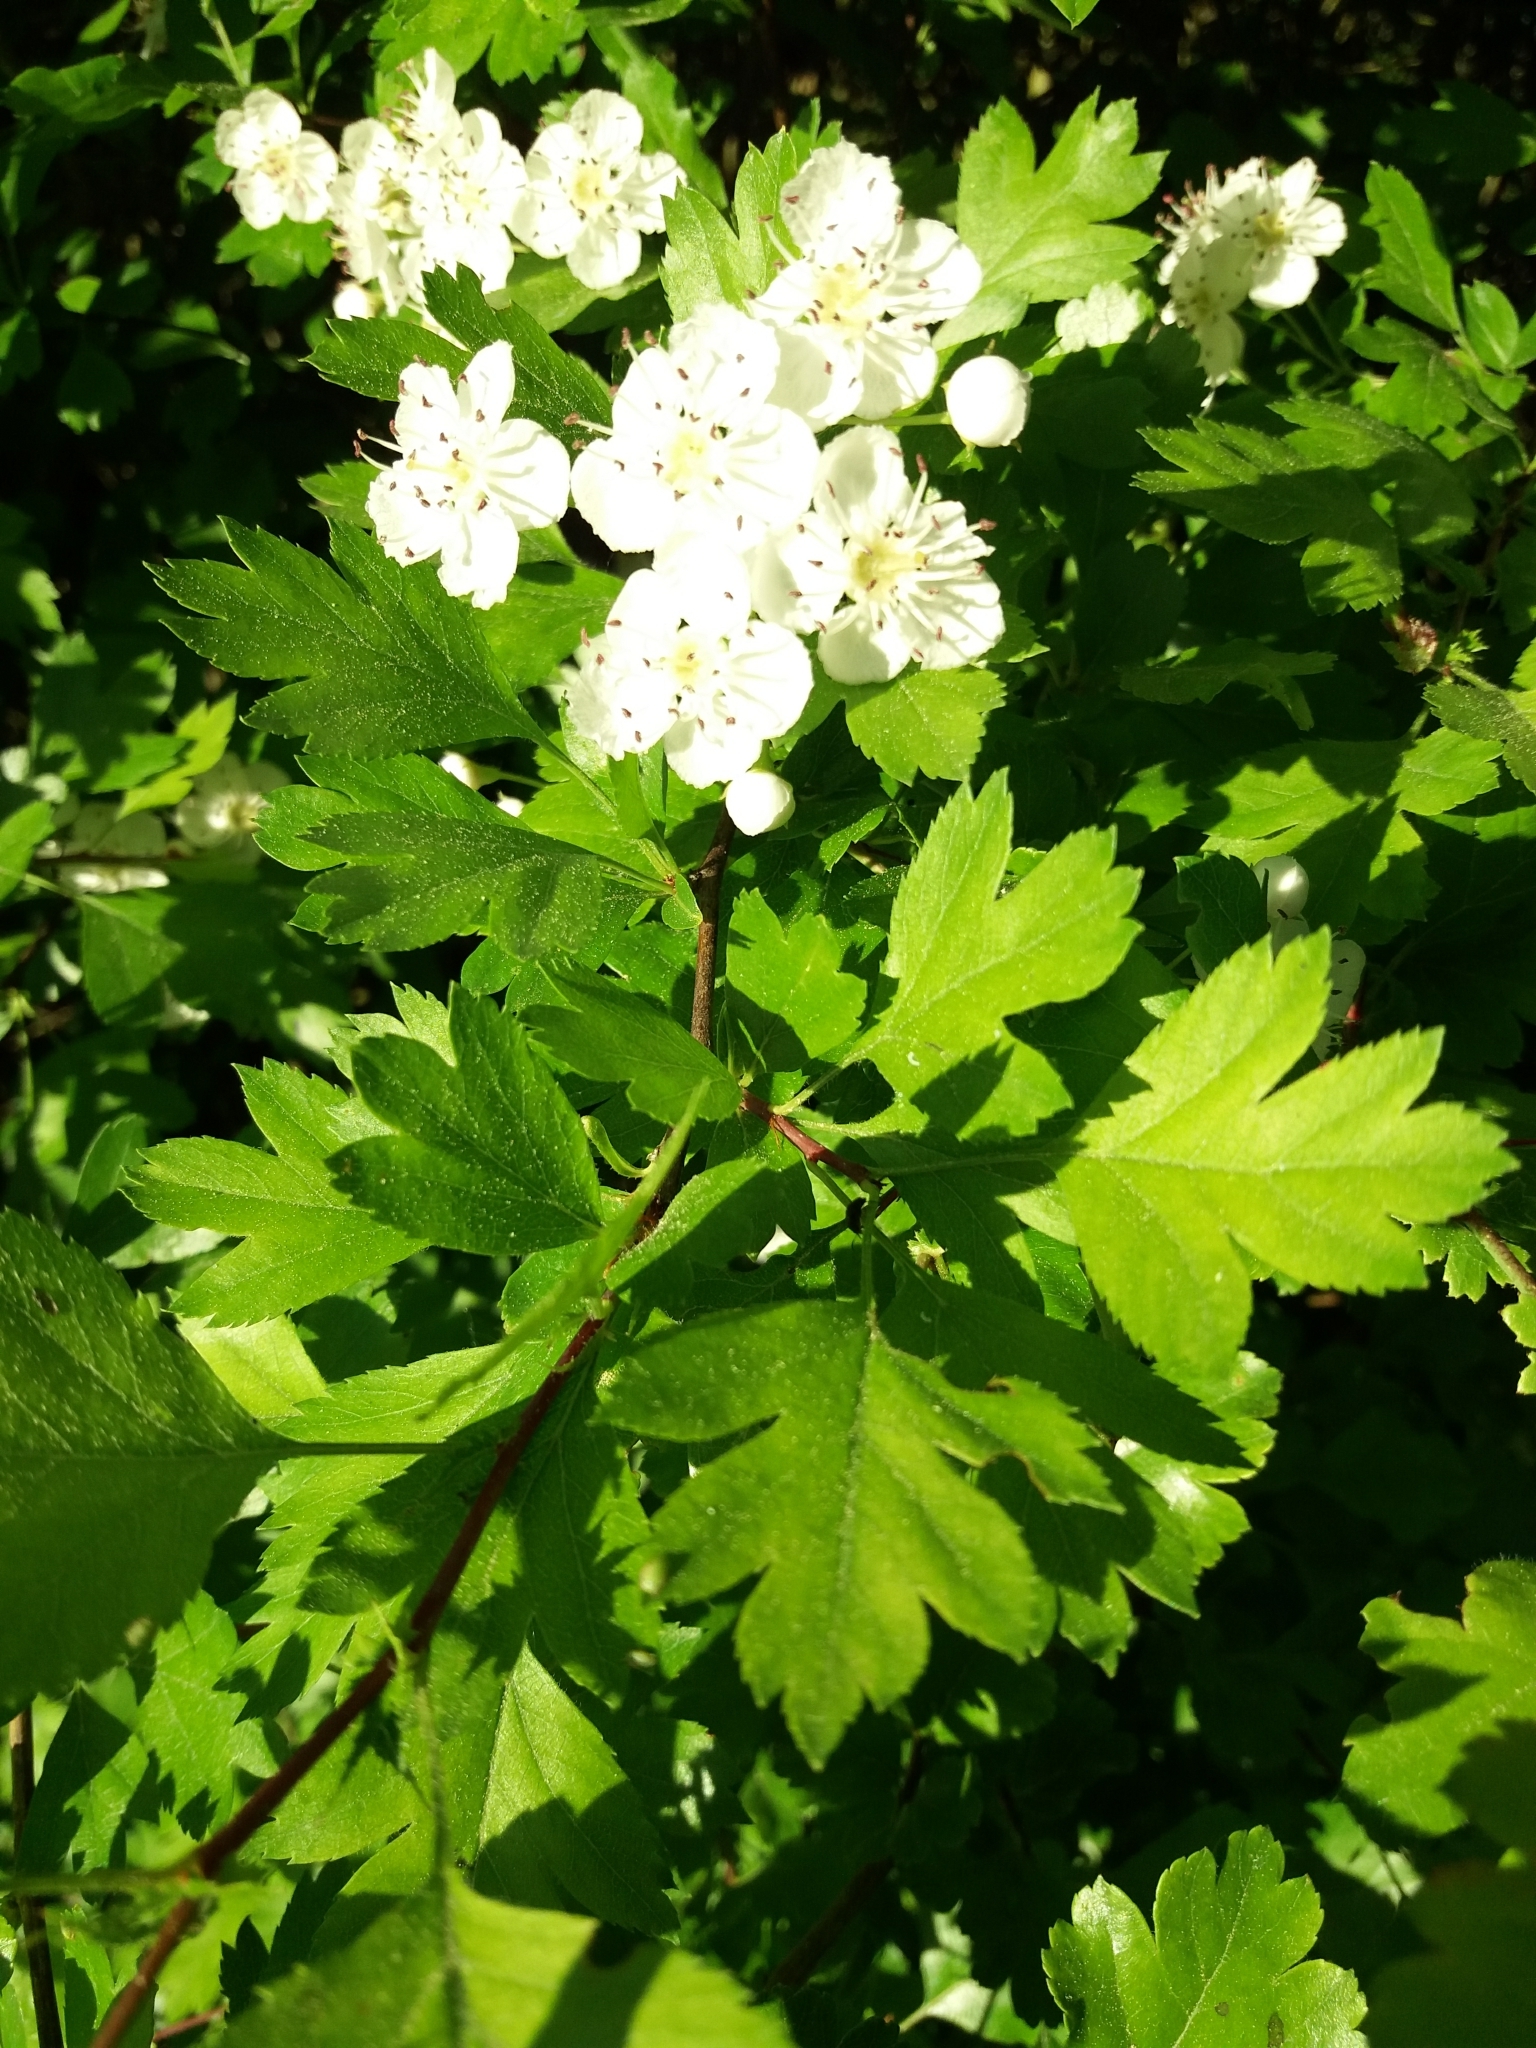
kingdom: Plantae
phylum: Tracheophyta
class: Magnoliopsida
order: Rosales
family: Rosaceae
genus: Crataegus
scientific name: Crataegus monogyna
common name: Hawthorn
